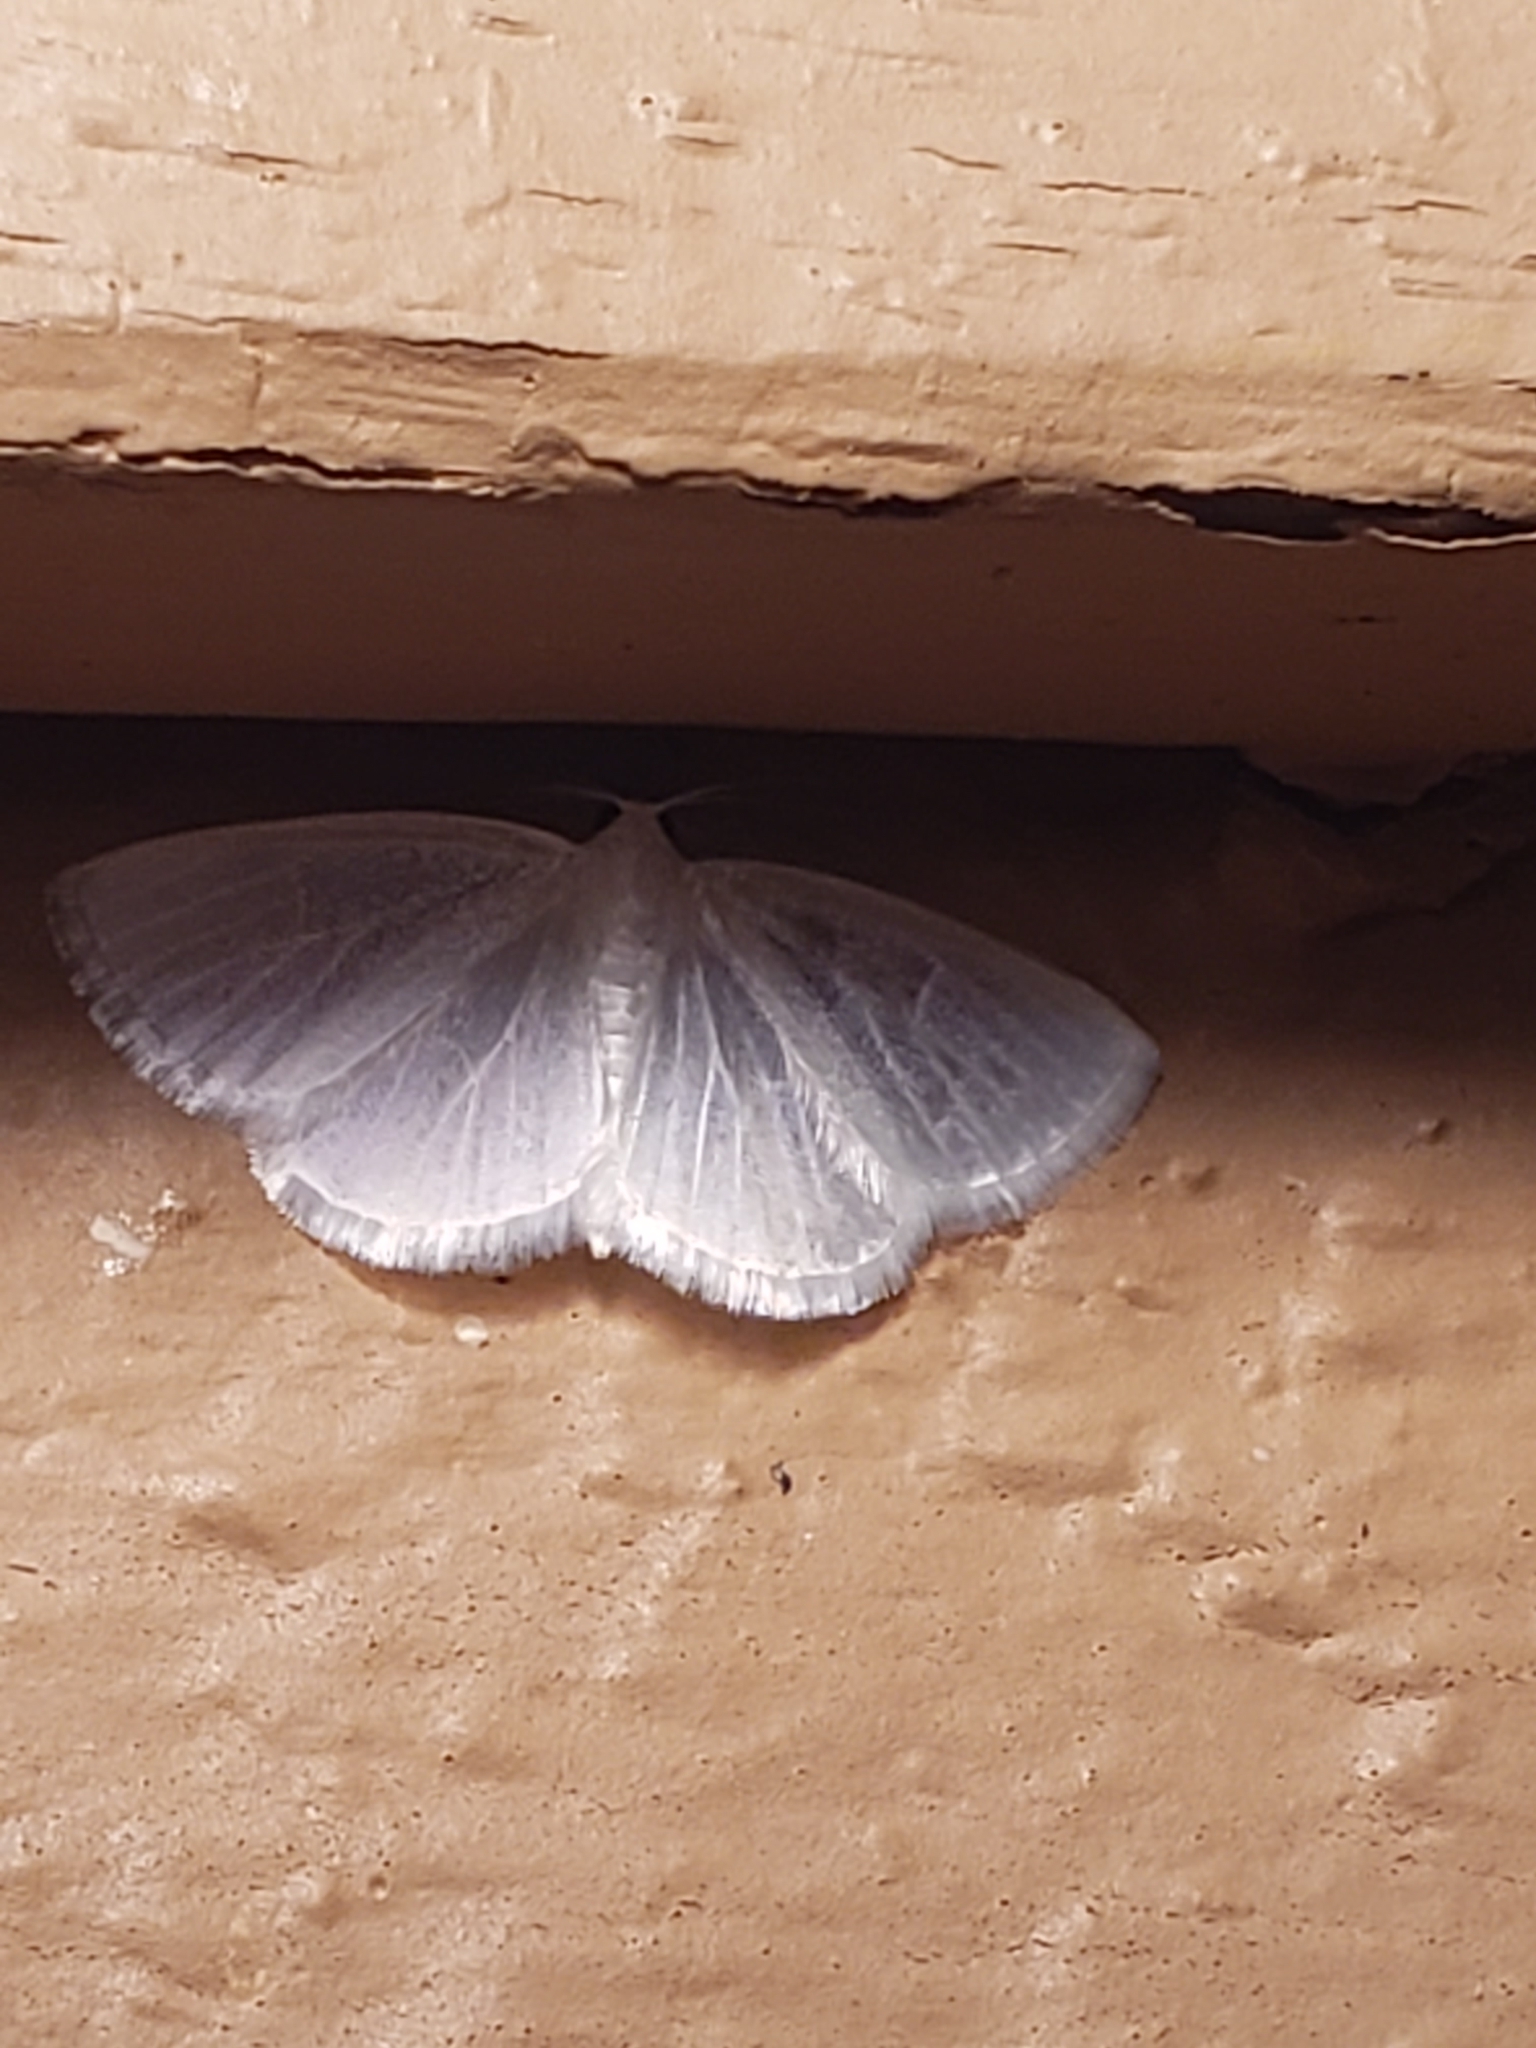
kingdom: Animalia
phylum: Arthropoda
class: Insecta
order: Lepidoptera
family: Geometridae
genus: Lomographa
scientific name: Lomographa vestaliata
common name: White spring moth
